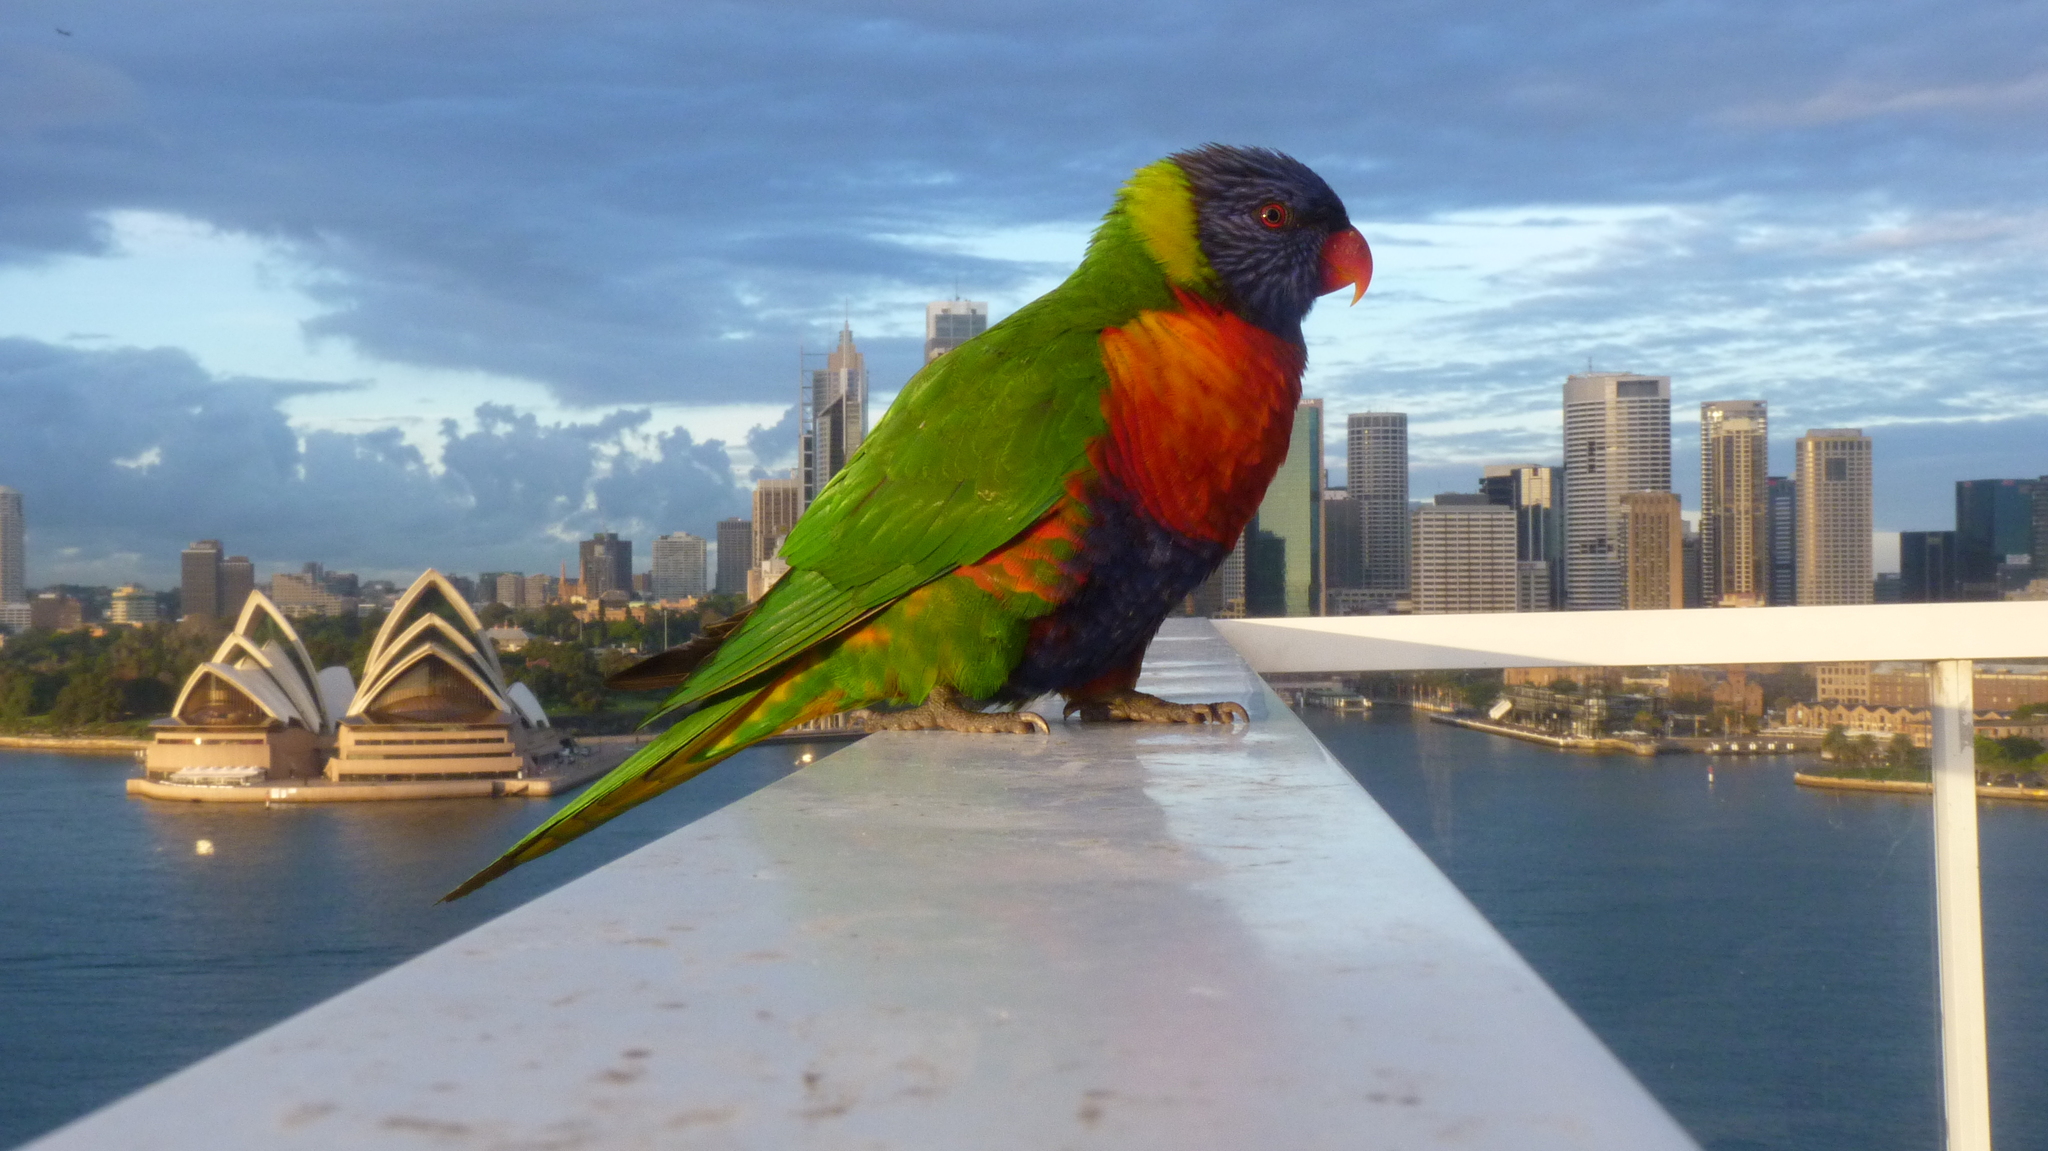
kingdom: Animalia
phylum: Chordata
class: Aves
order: Psittaciformes
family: Psittacidae
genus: Trichoglossus
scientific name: Trichoglossus haematodus
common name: Coconut lorikeet
